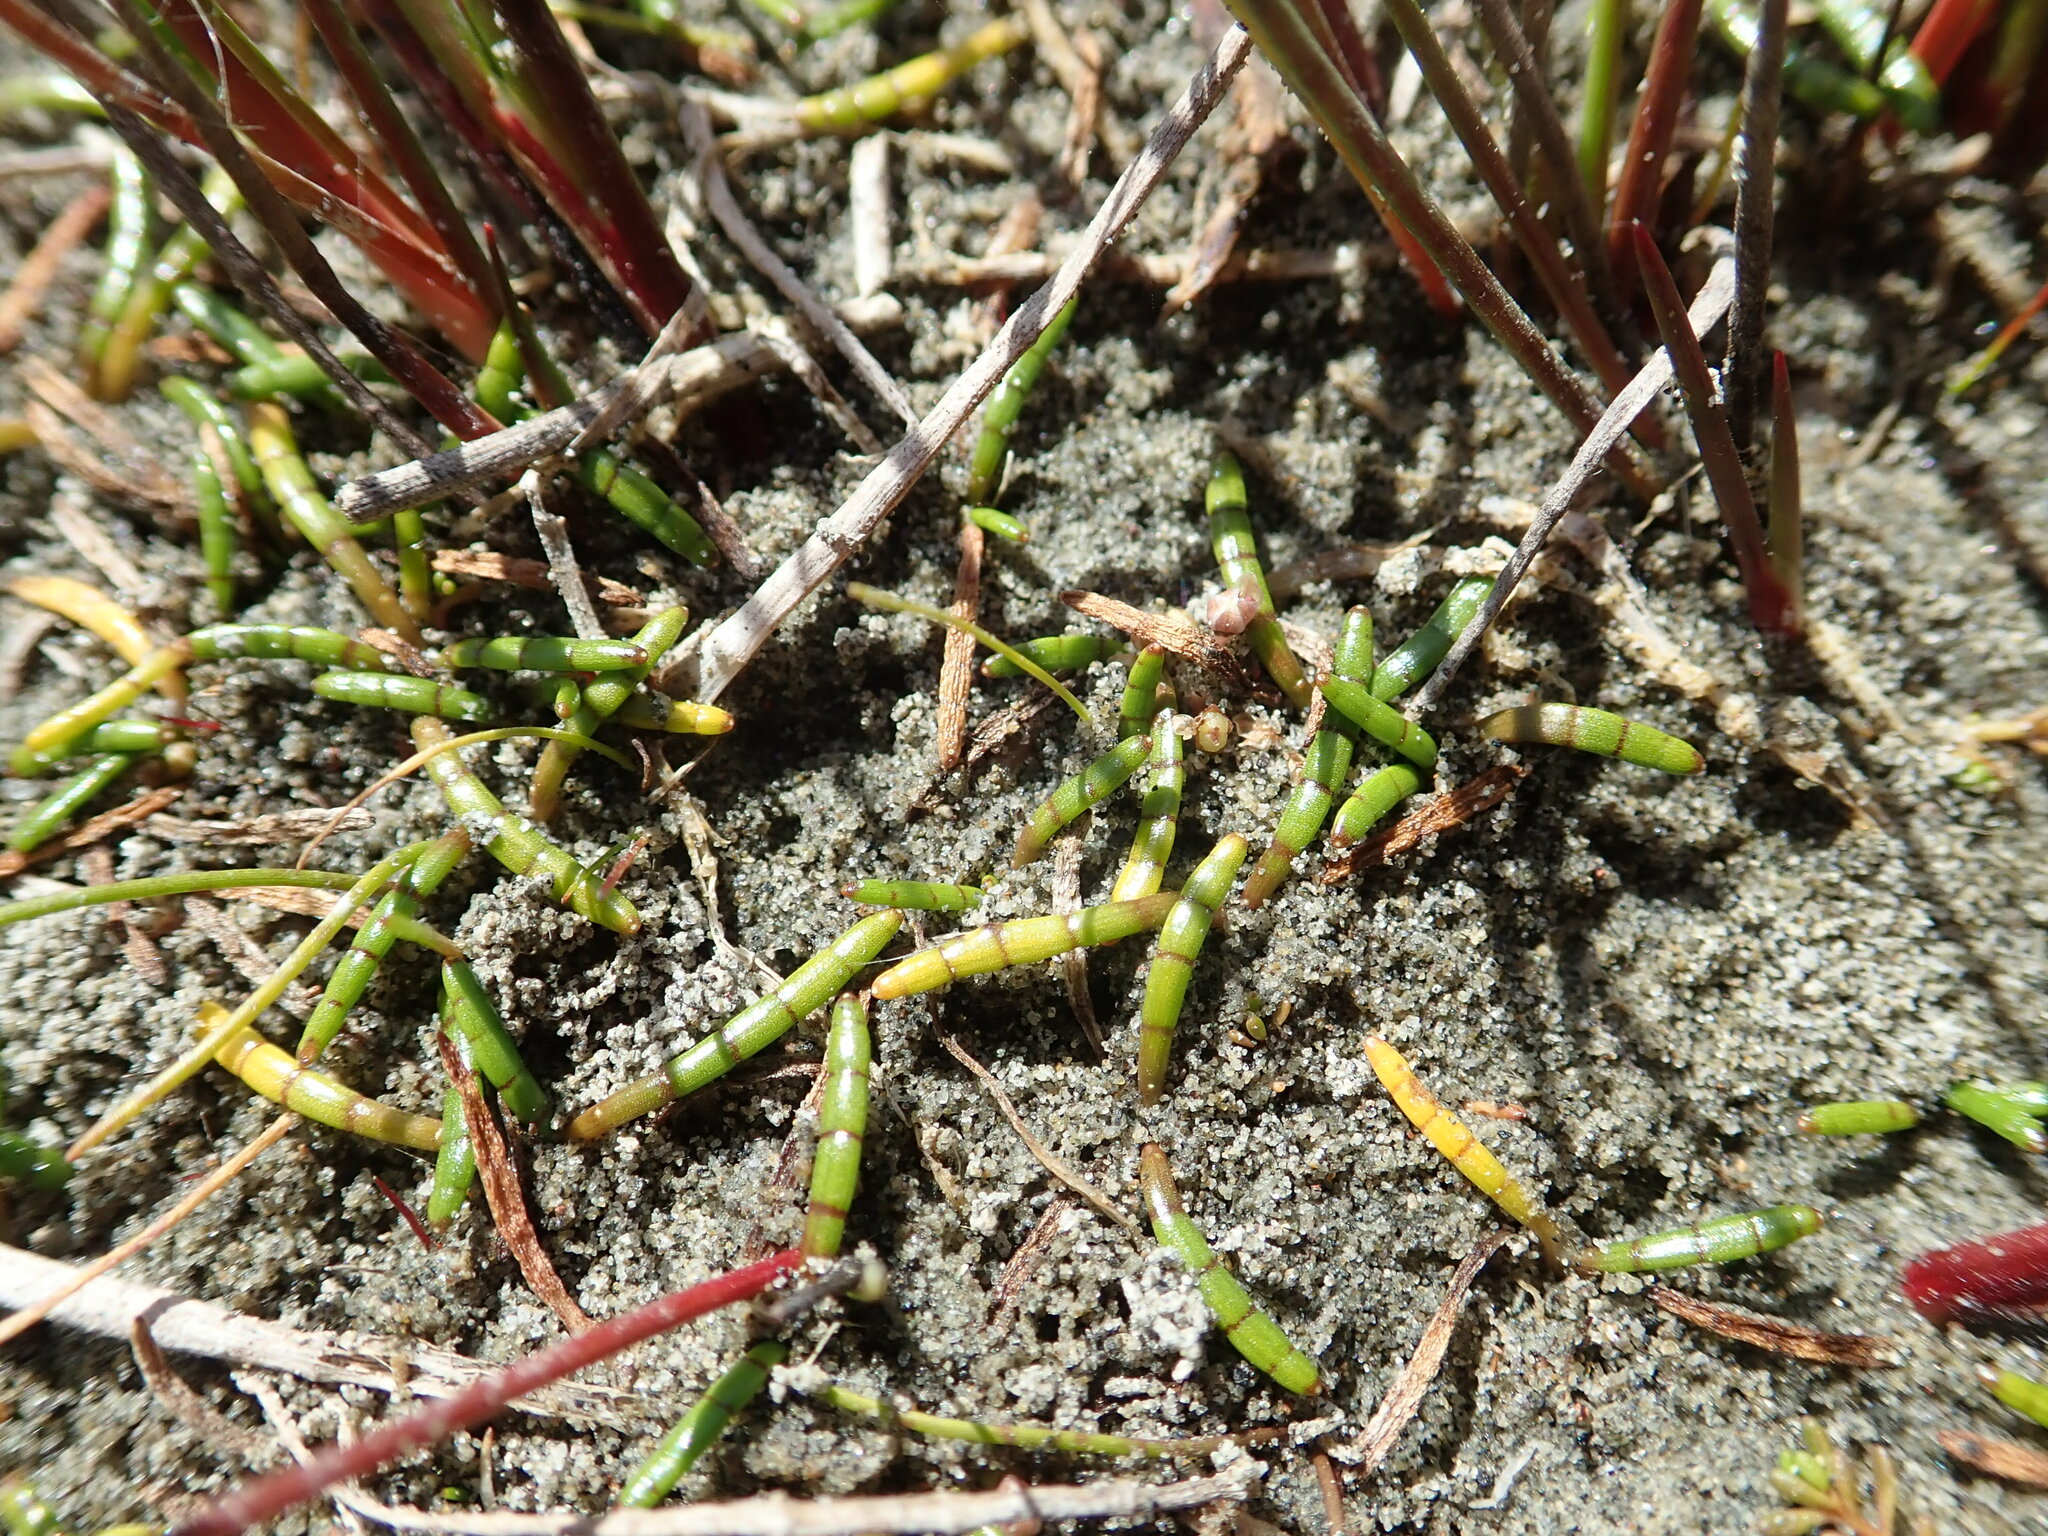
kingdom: Plantae
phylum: Tracheophyta
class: Magnoliopsida
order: Apiales
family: Apiaceae
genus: Lilaeopsis
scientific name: Lilaeopsis novae-zelandiae
